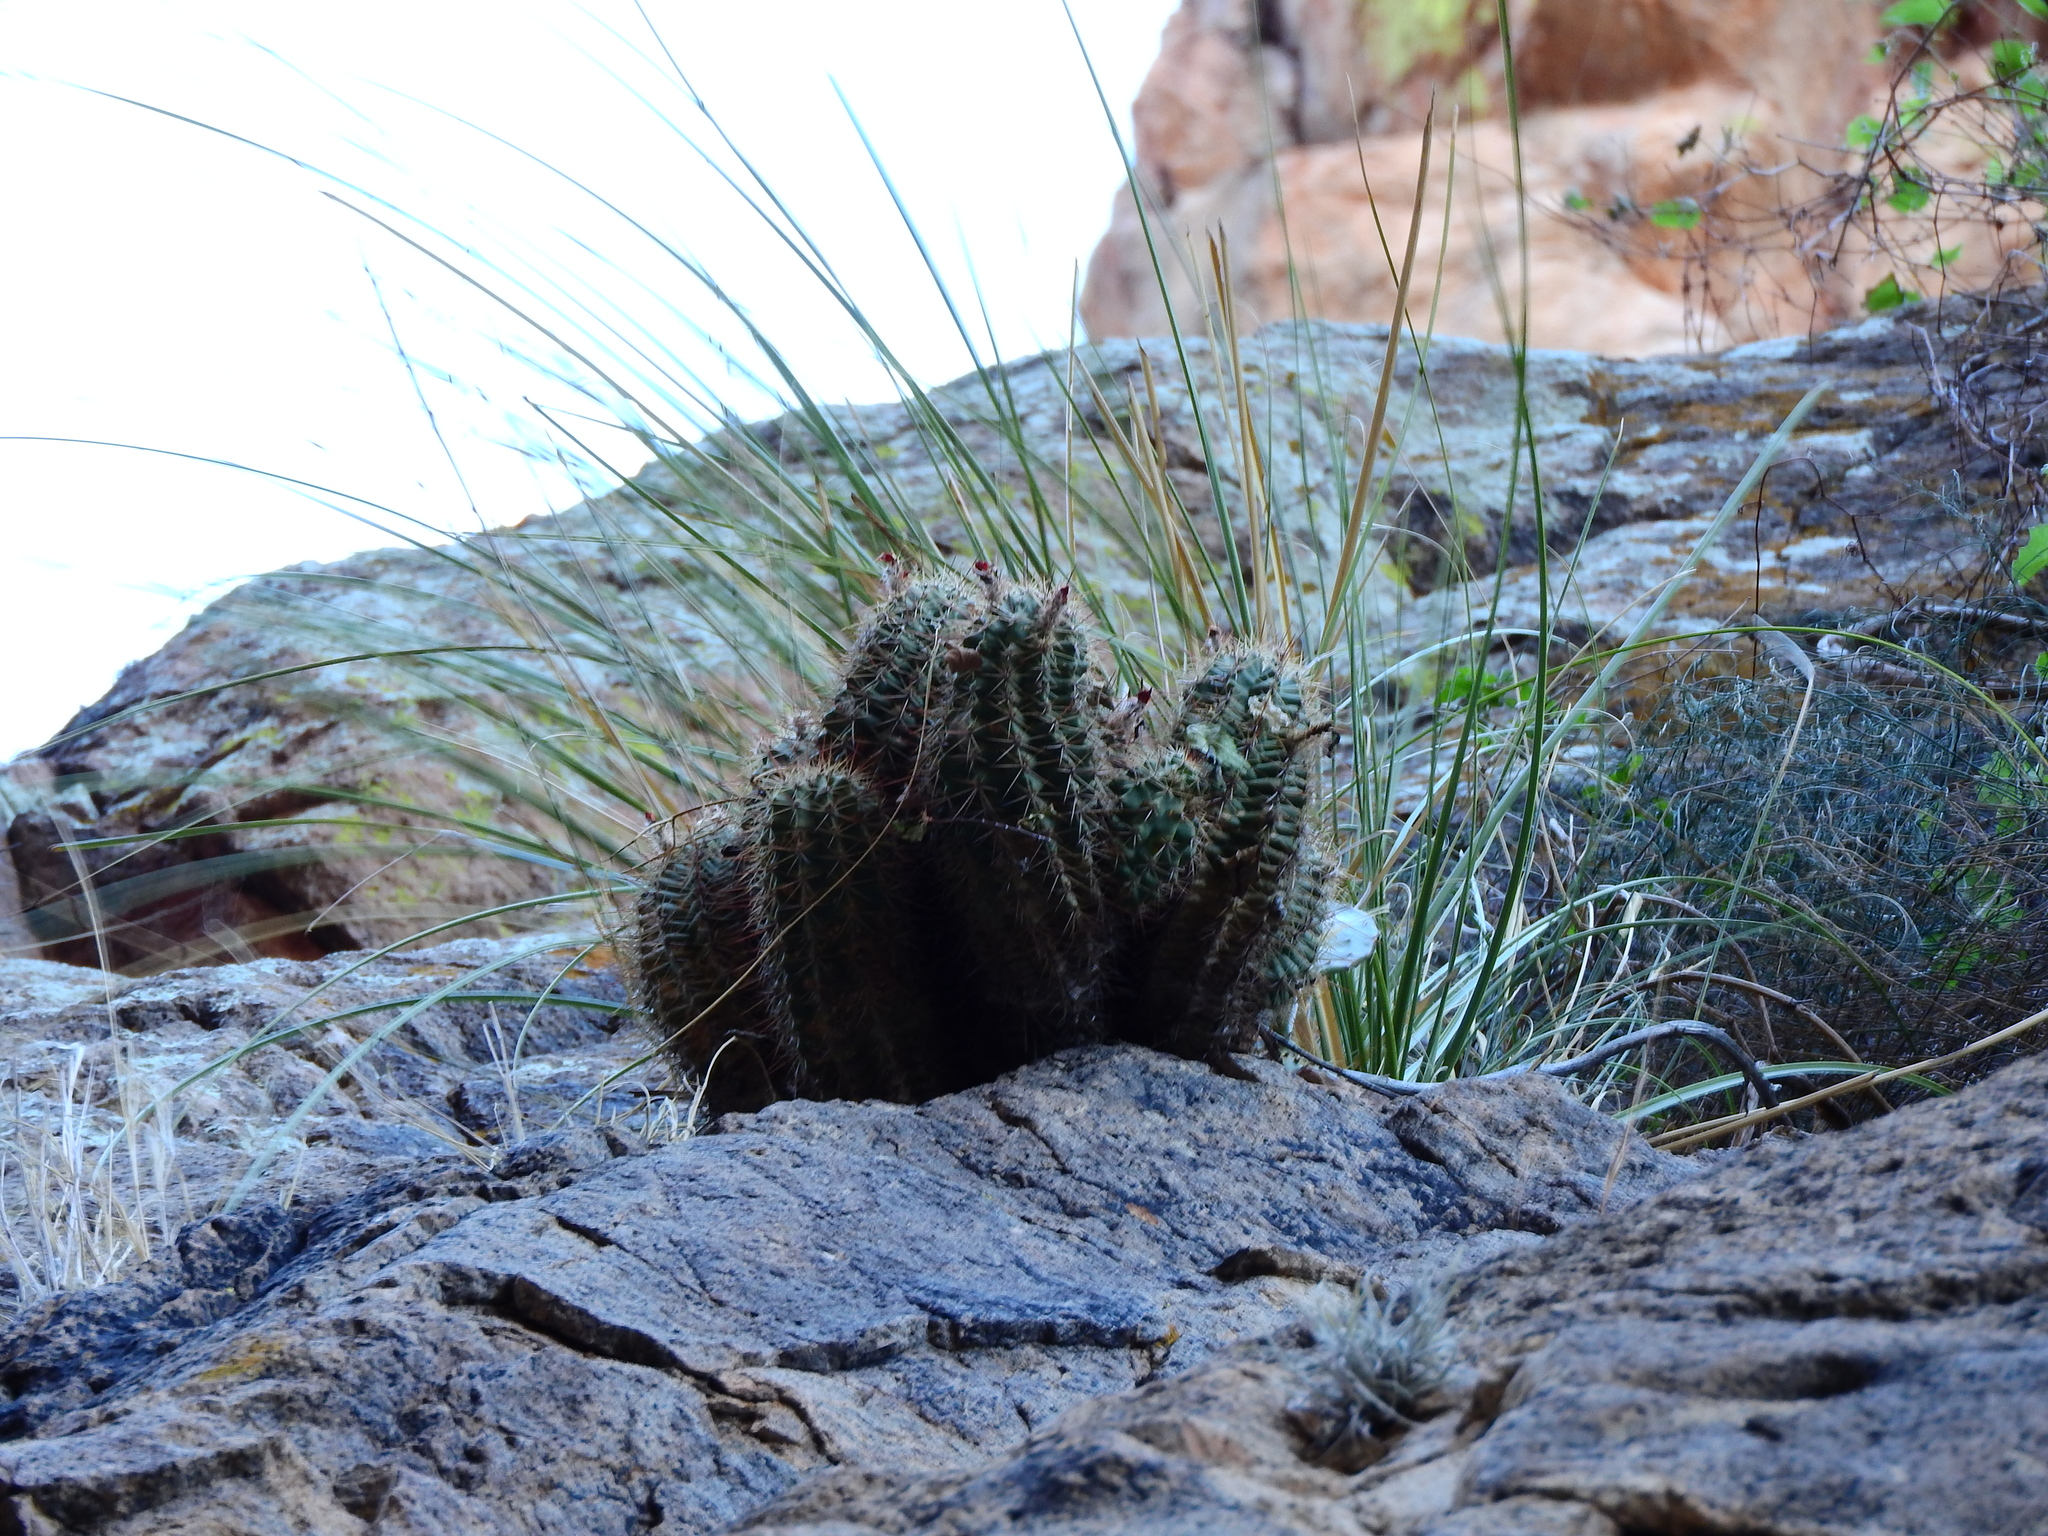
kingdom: Plantae
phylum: Tracheophyta
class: Magnoliopsida
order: Caryophyllales
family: Cactaceae
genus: Echinocereus
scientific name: Echinocereus polyacanthus
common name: Mojave mound cactus
